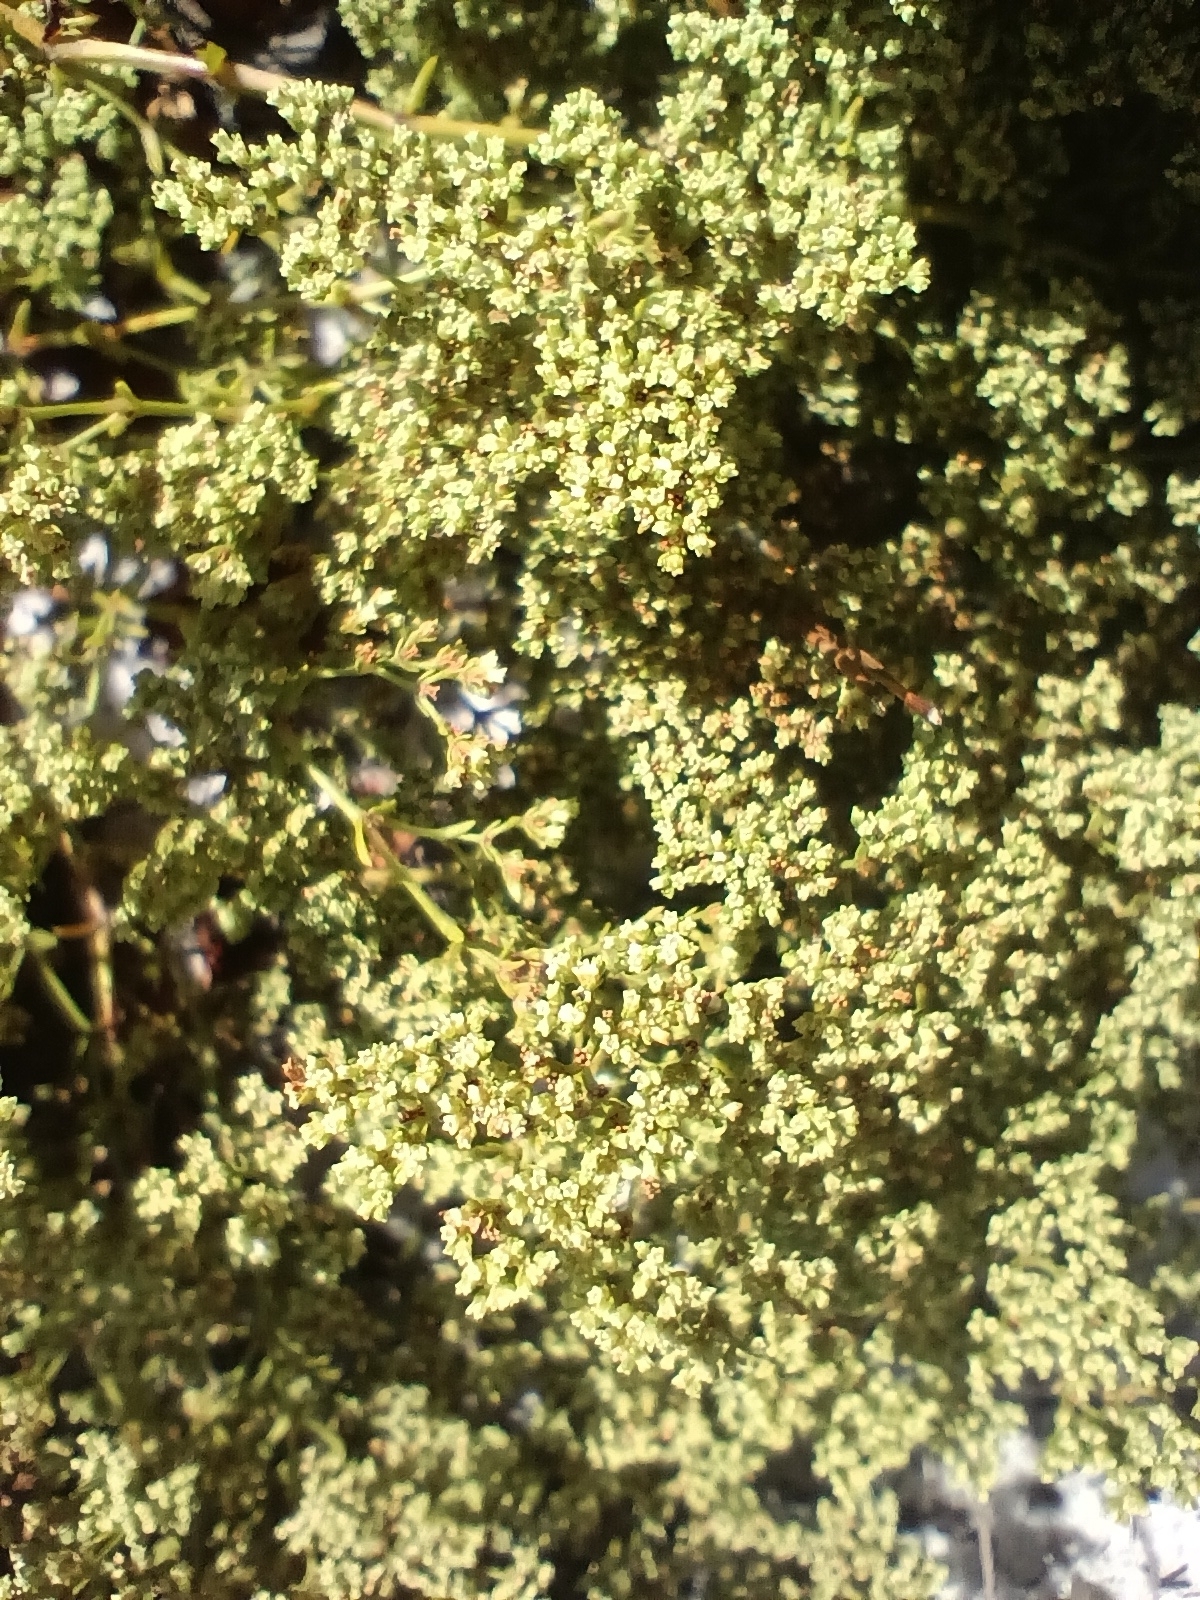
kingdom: Plantae
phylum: Tracheophyta
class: Magnoliopsida
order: Caryophyllales
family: Caryophyllaceae
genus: Paronychia
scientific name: Paronychia chartacea
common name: Paper nailwort
